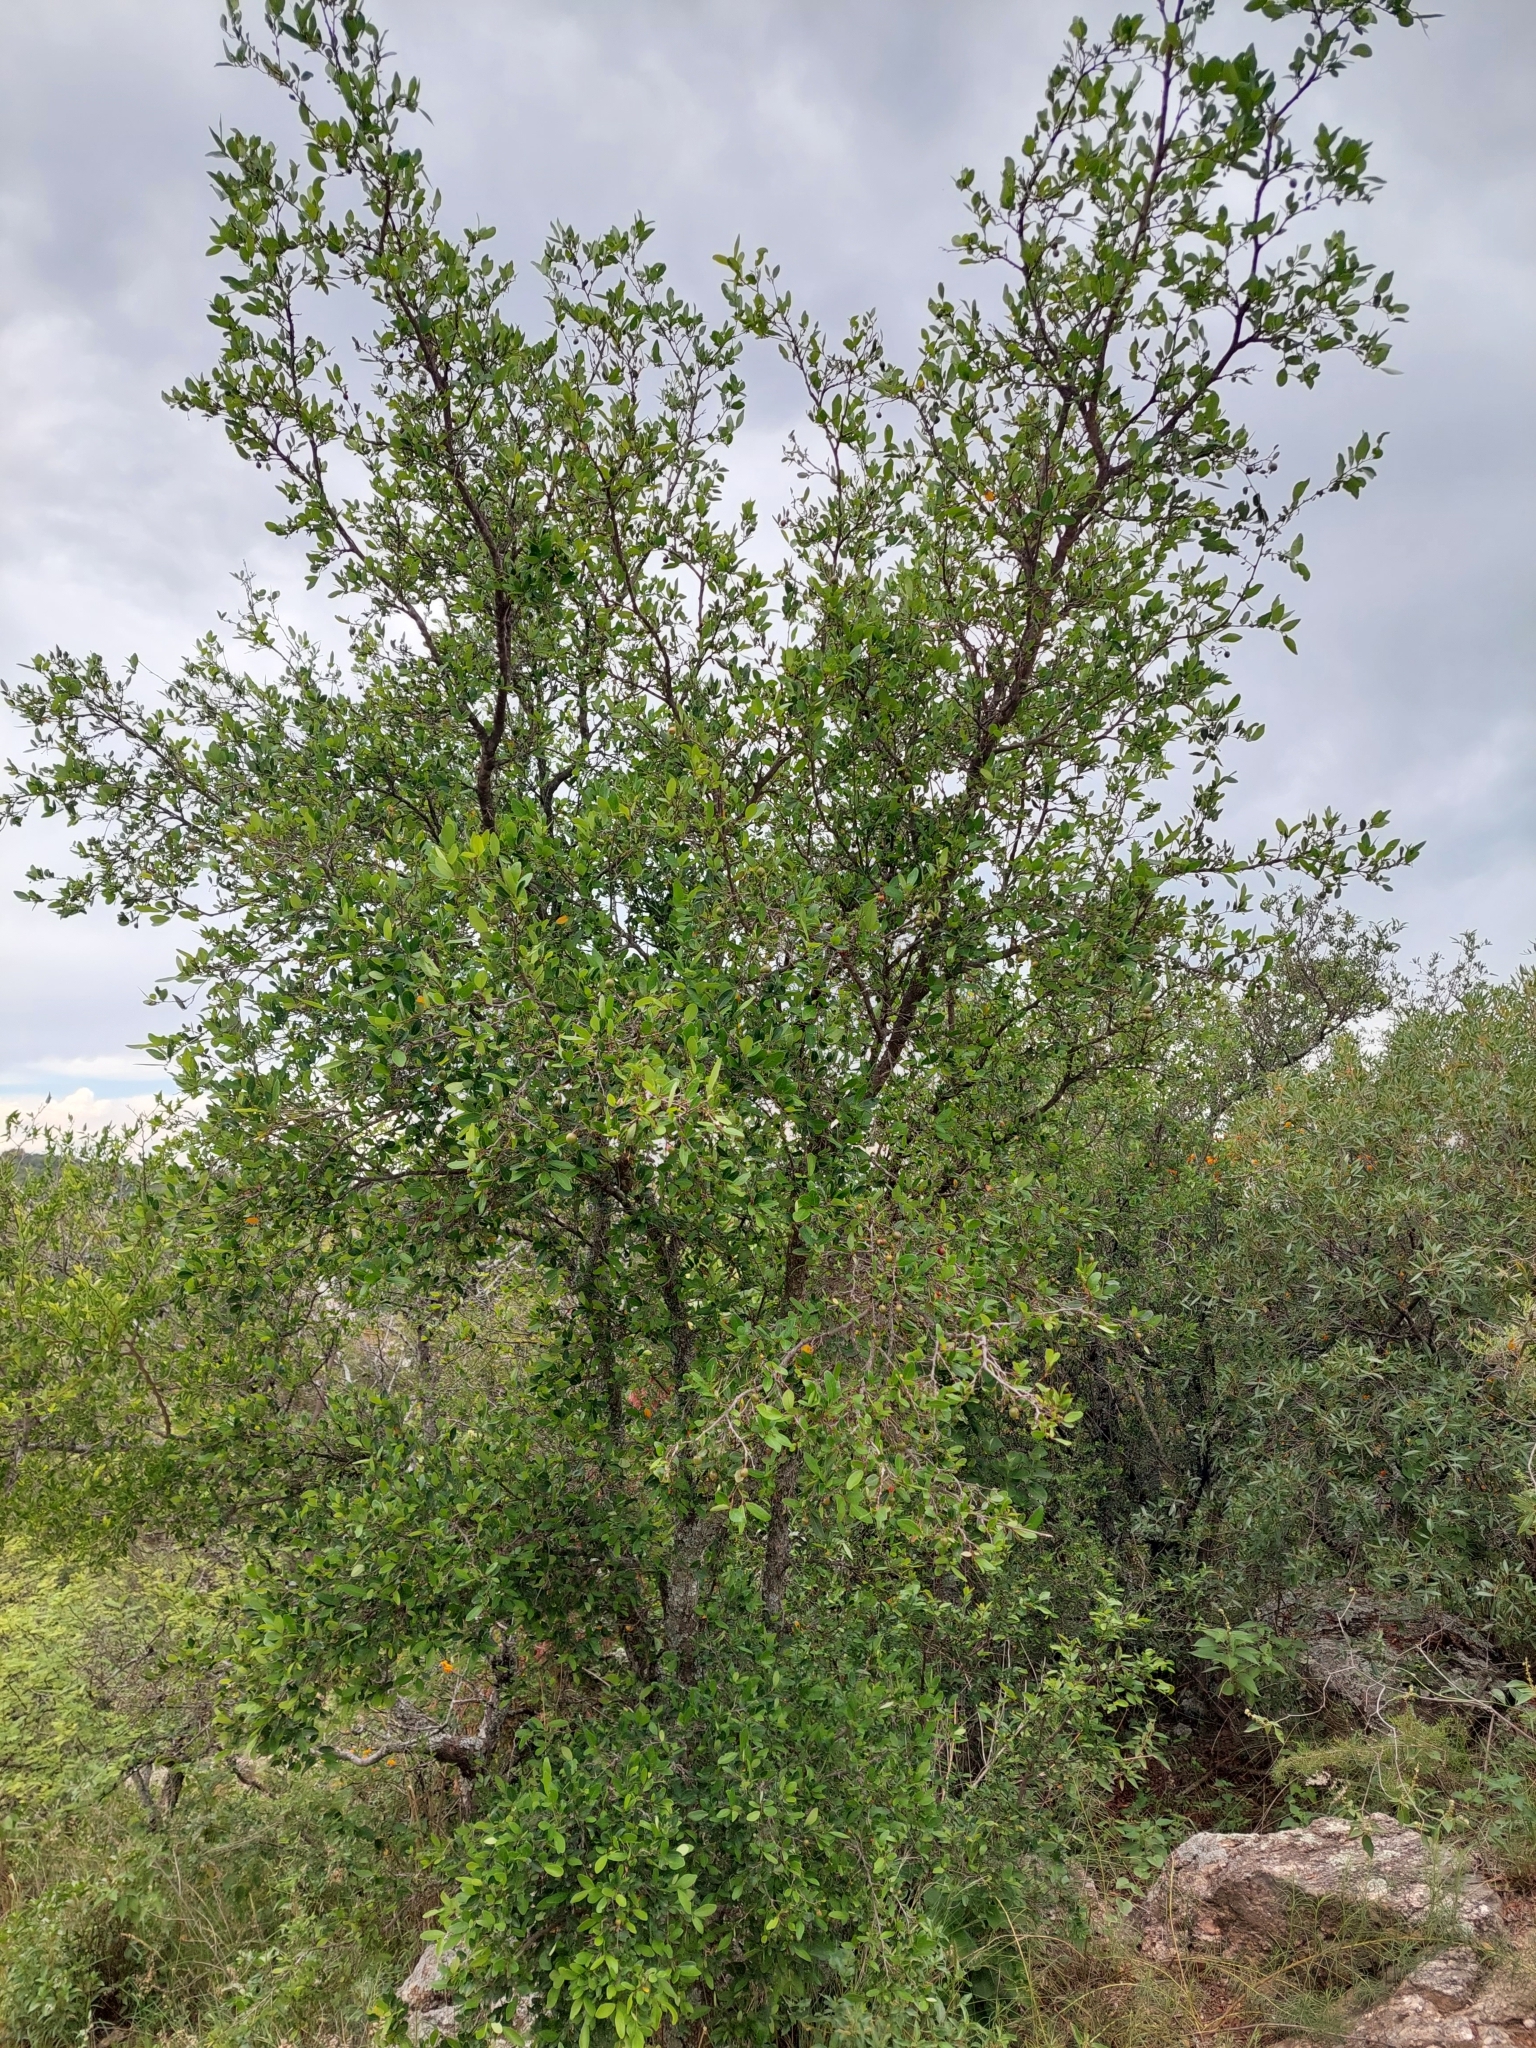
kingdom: Plantae
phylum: Tracheophyta
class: Magnoliopsida
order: Malpighiales
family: Euphorbiaceae
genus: Sebastiania
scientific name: Sebastiania klotzschiana
